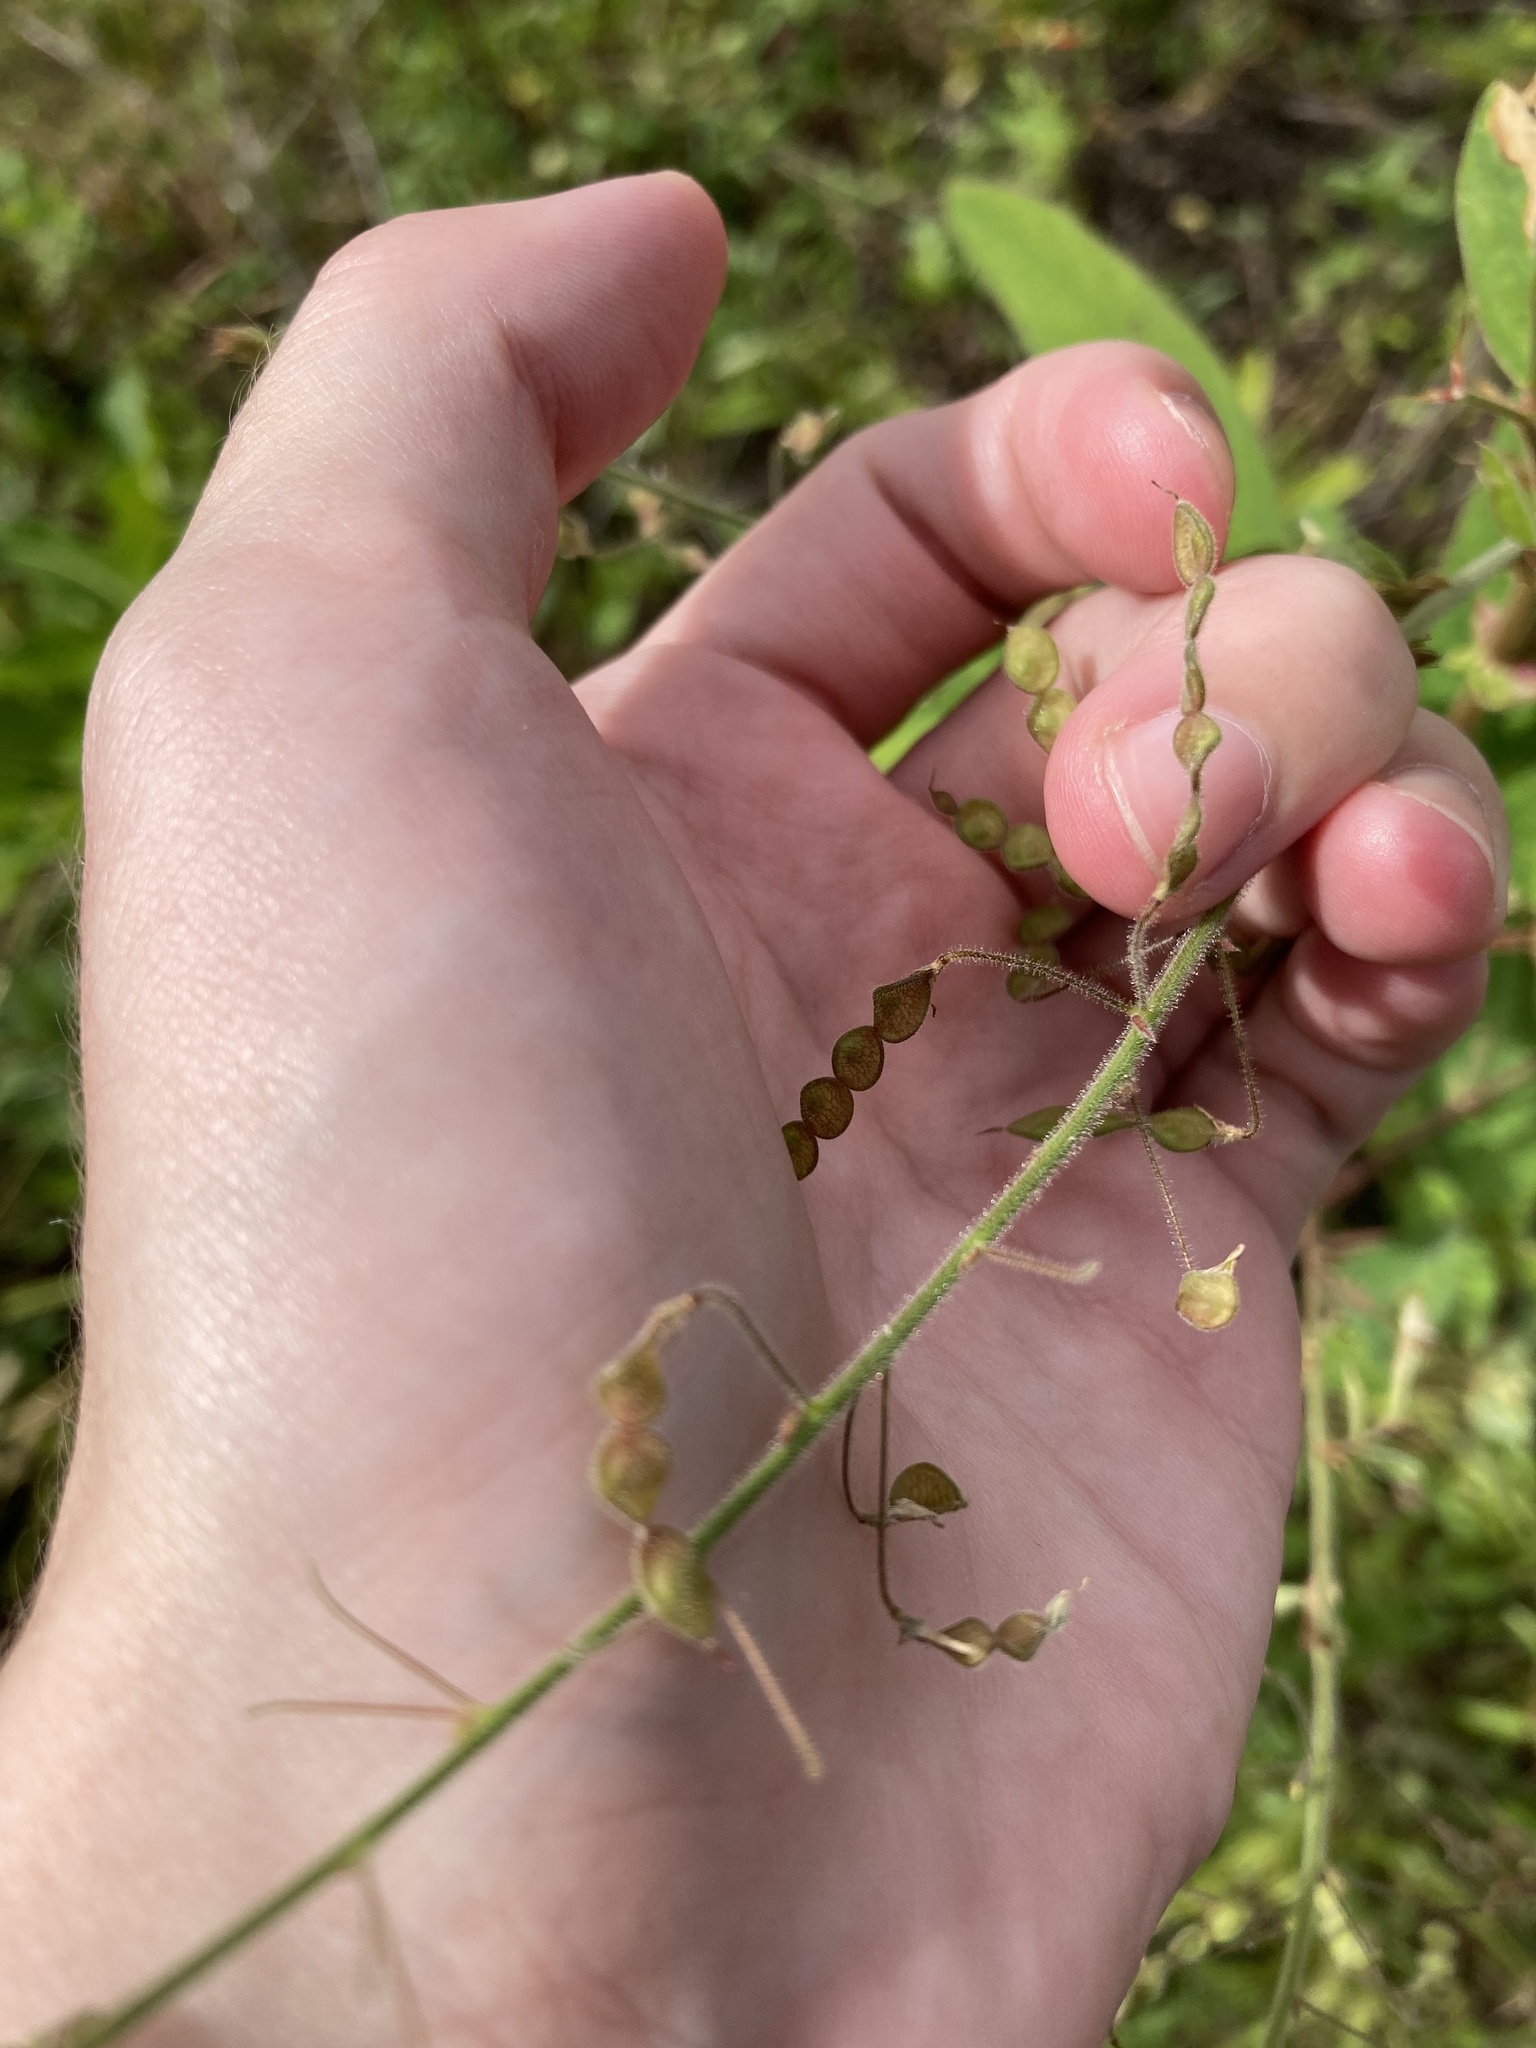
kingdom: Plantae
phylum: Tracheophyta
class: Magnoliopsida
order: Fabales
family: Fabaceae
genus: Desmodium
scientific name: Desmodium tortuosum
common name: Dixie ticktrefoil
